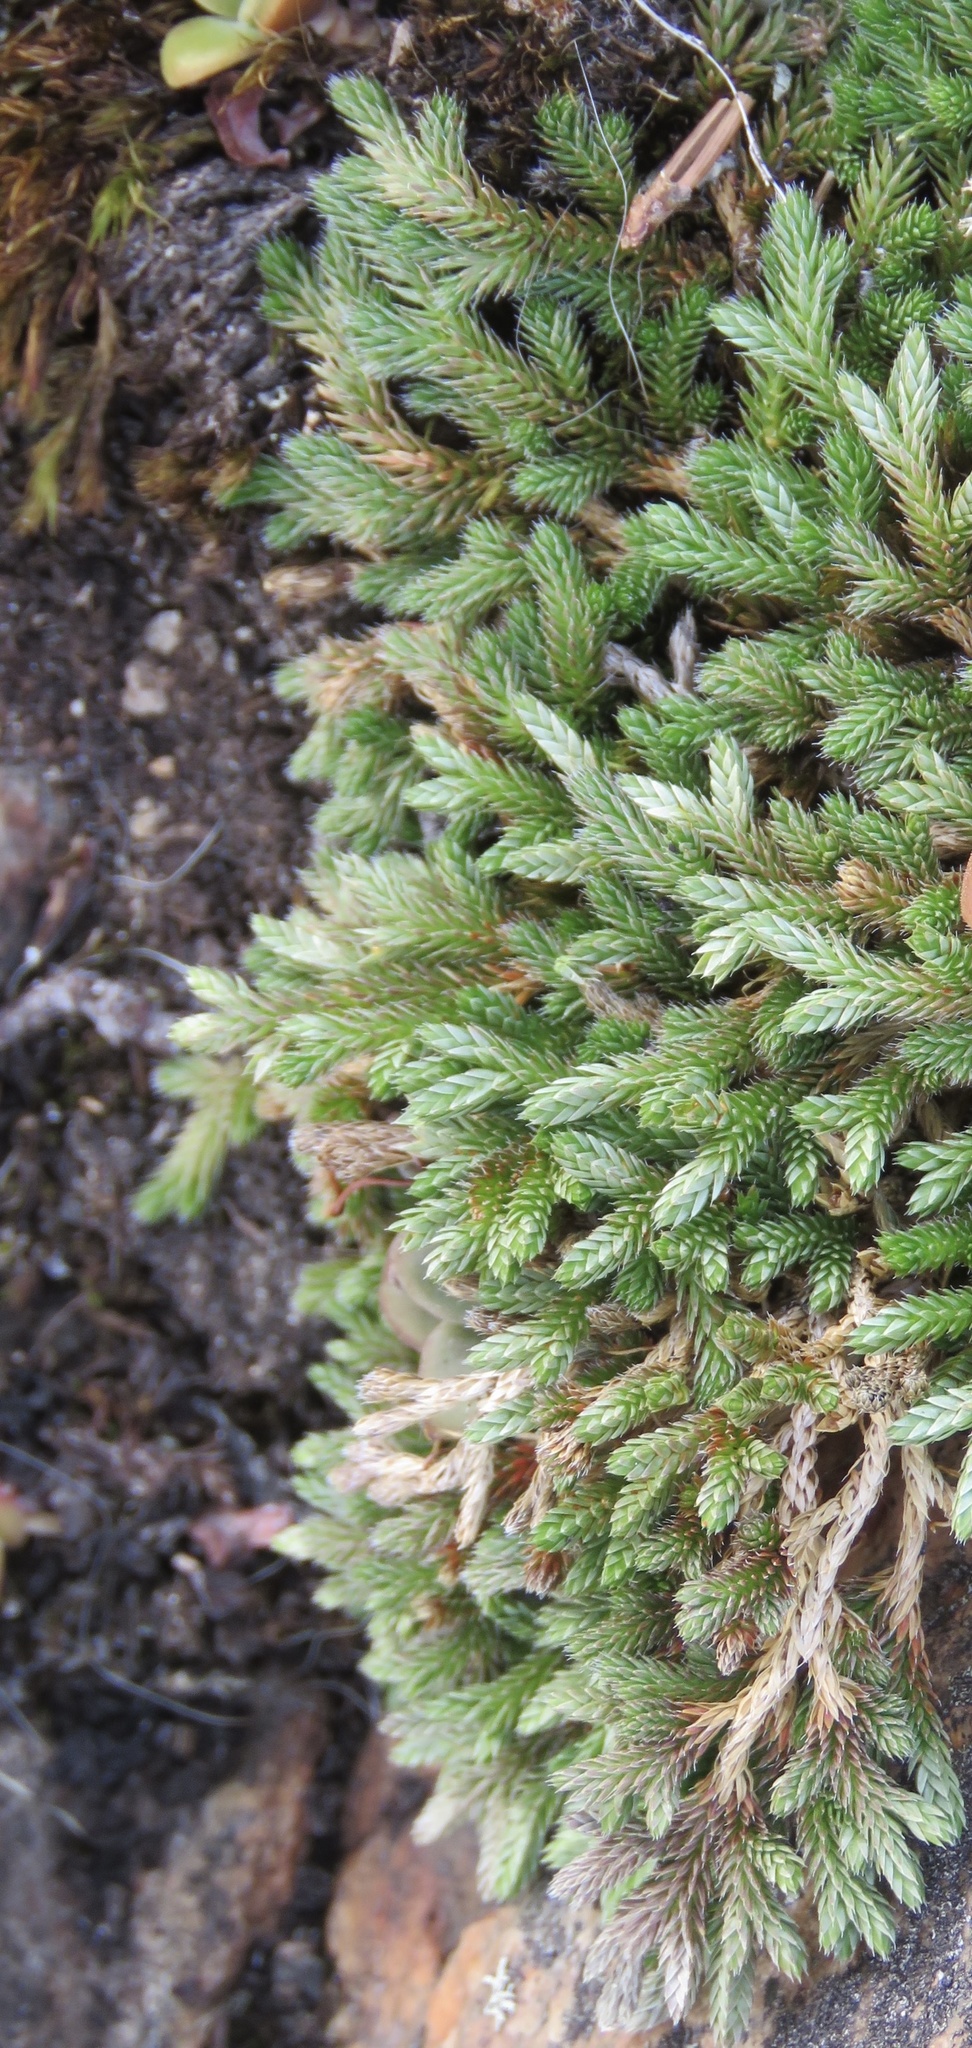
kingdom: Plantae
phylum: Tracheophyta
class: Lycopodiopsida
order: Selaginellales
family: Selaginellaceae
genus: Selaginella
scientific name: Selaginella wallacei
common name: Wallace's selaginella
